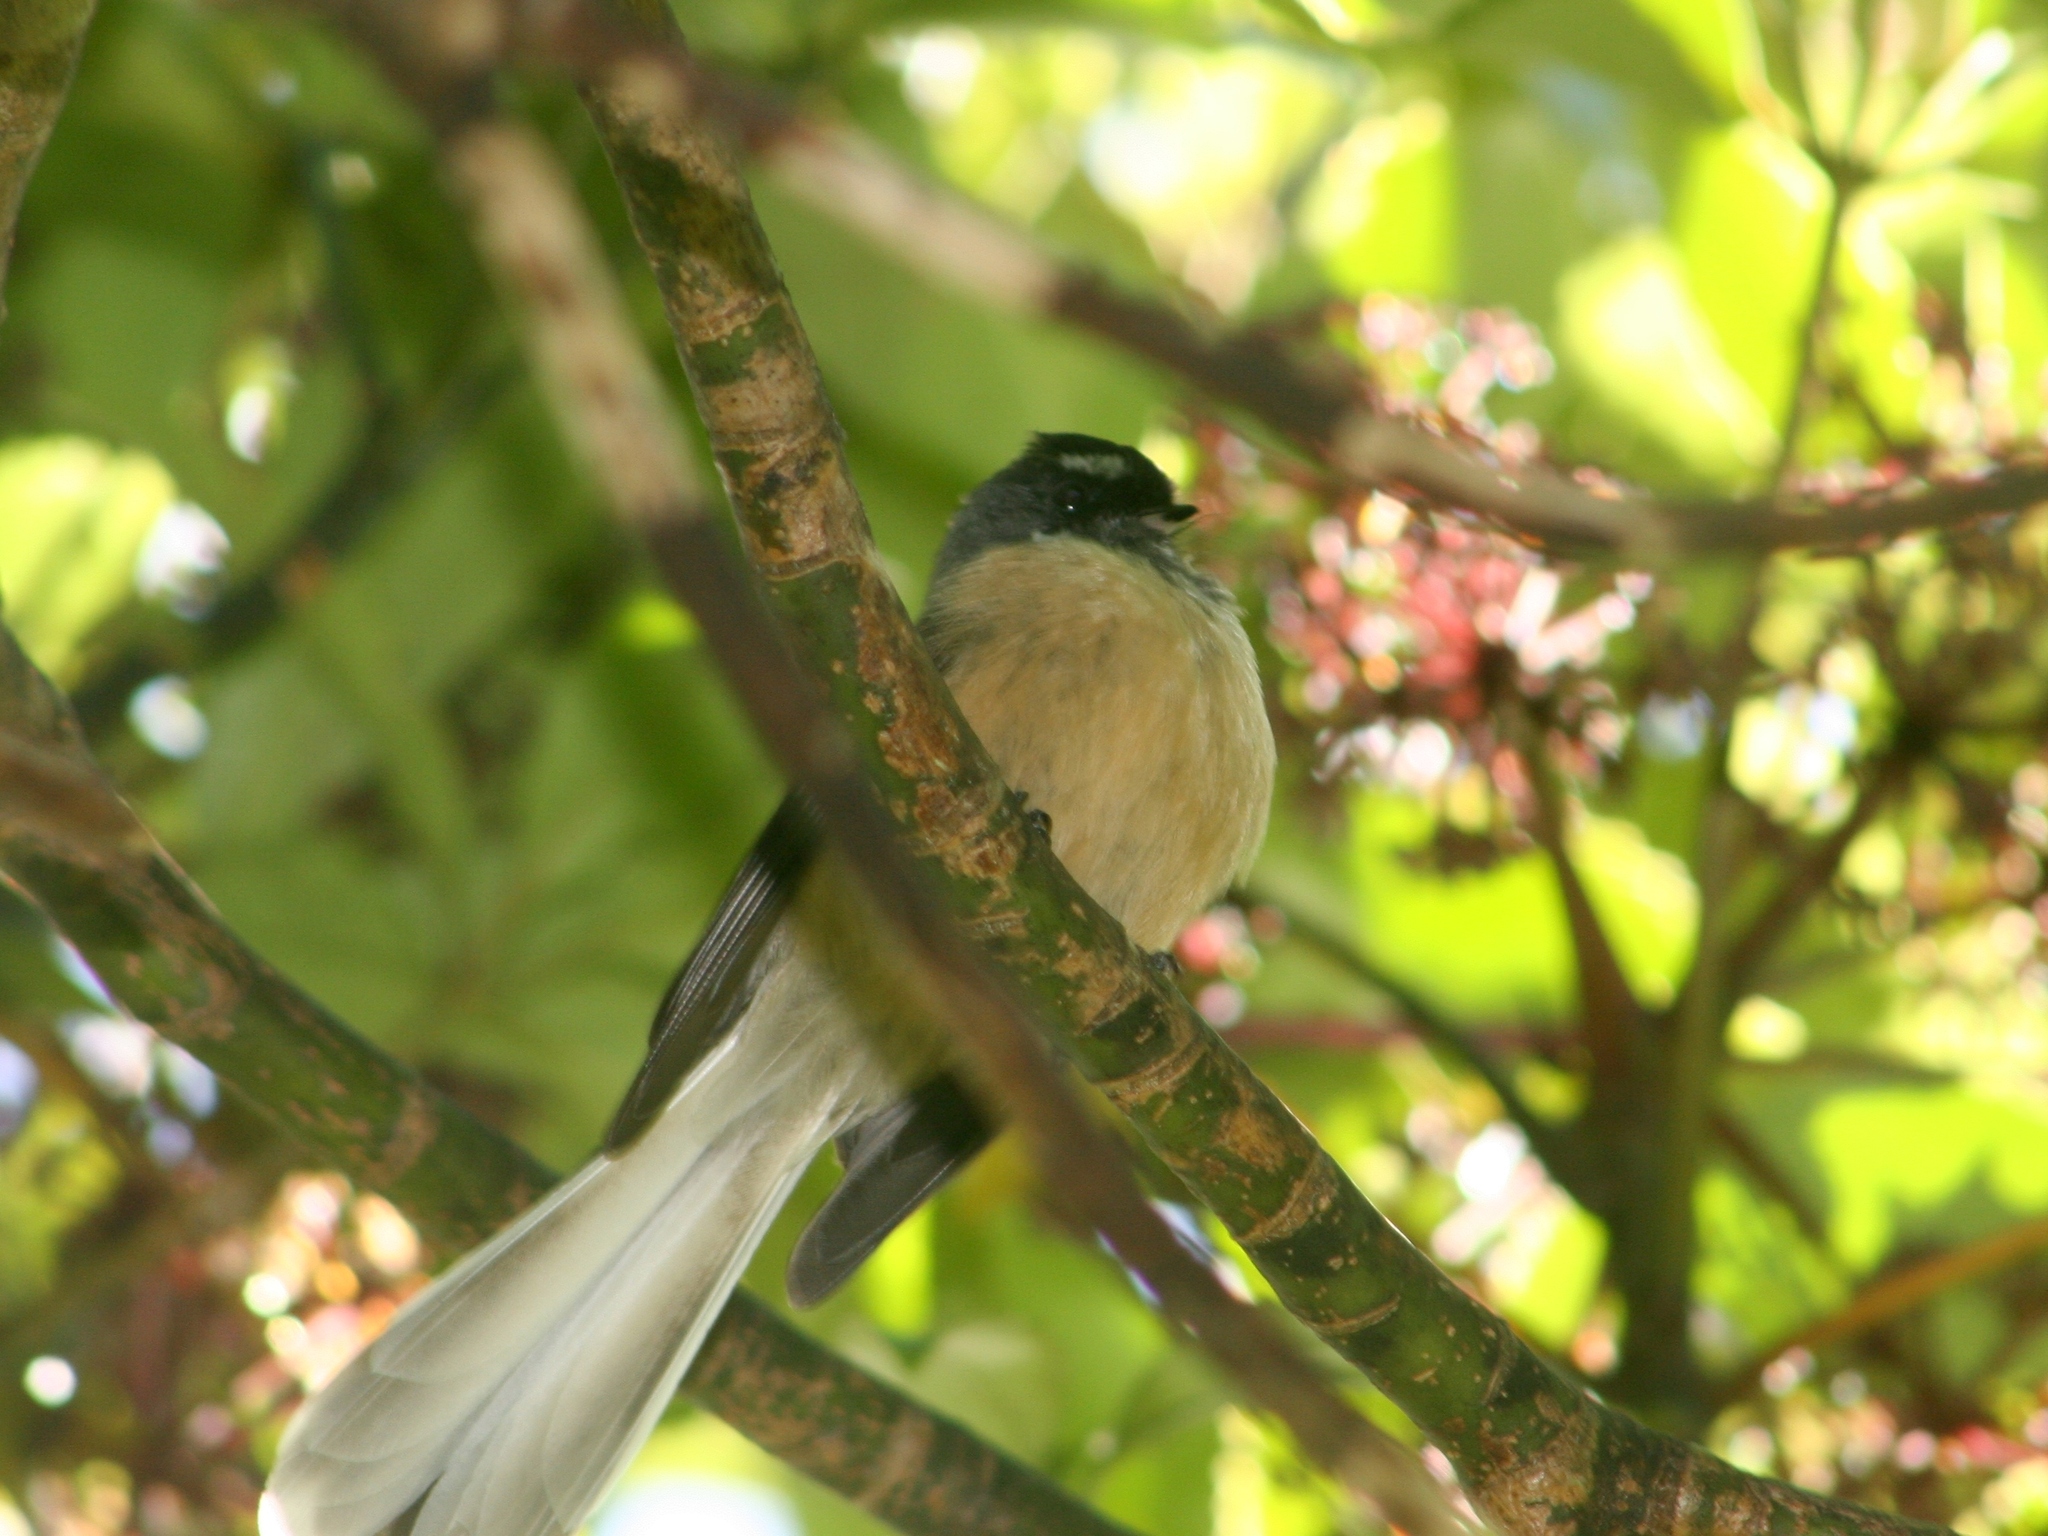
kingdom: Animalia
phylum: Chordata
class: Aves
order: Passeriformes
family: Rhipiduridae
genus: Rhipidura
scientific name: Rhipidura fuliginosa
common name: New zealand fantail
